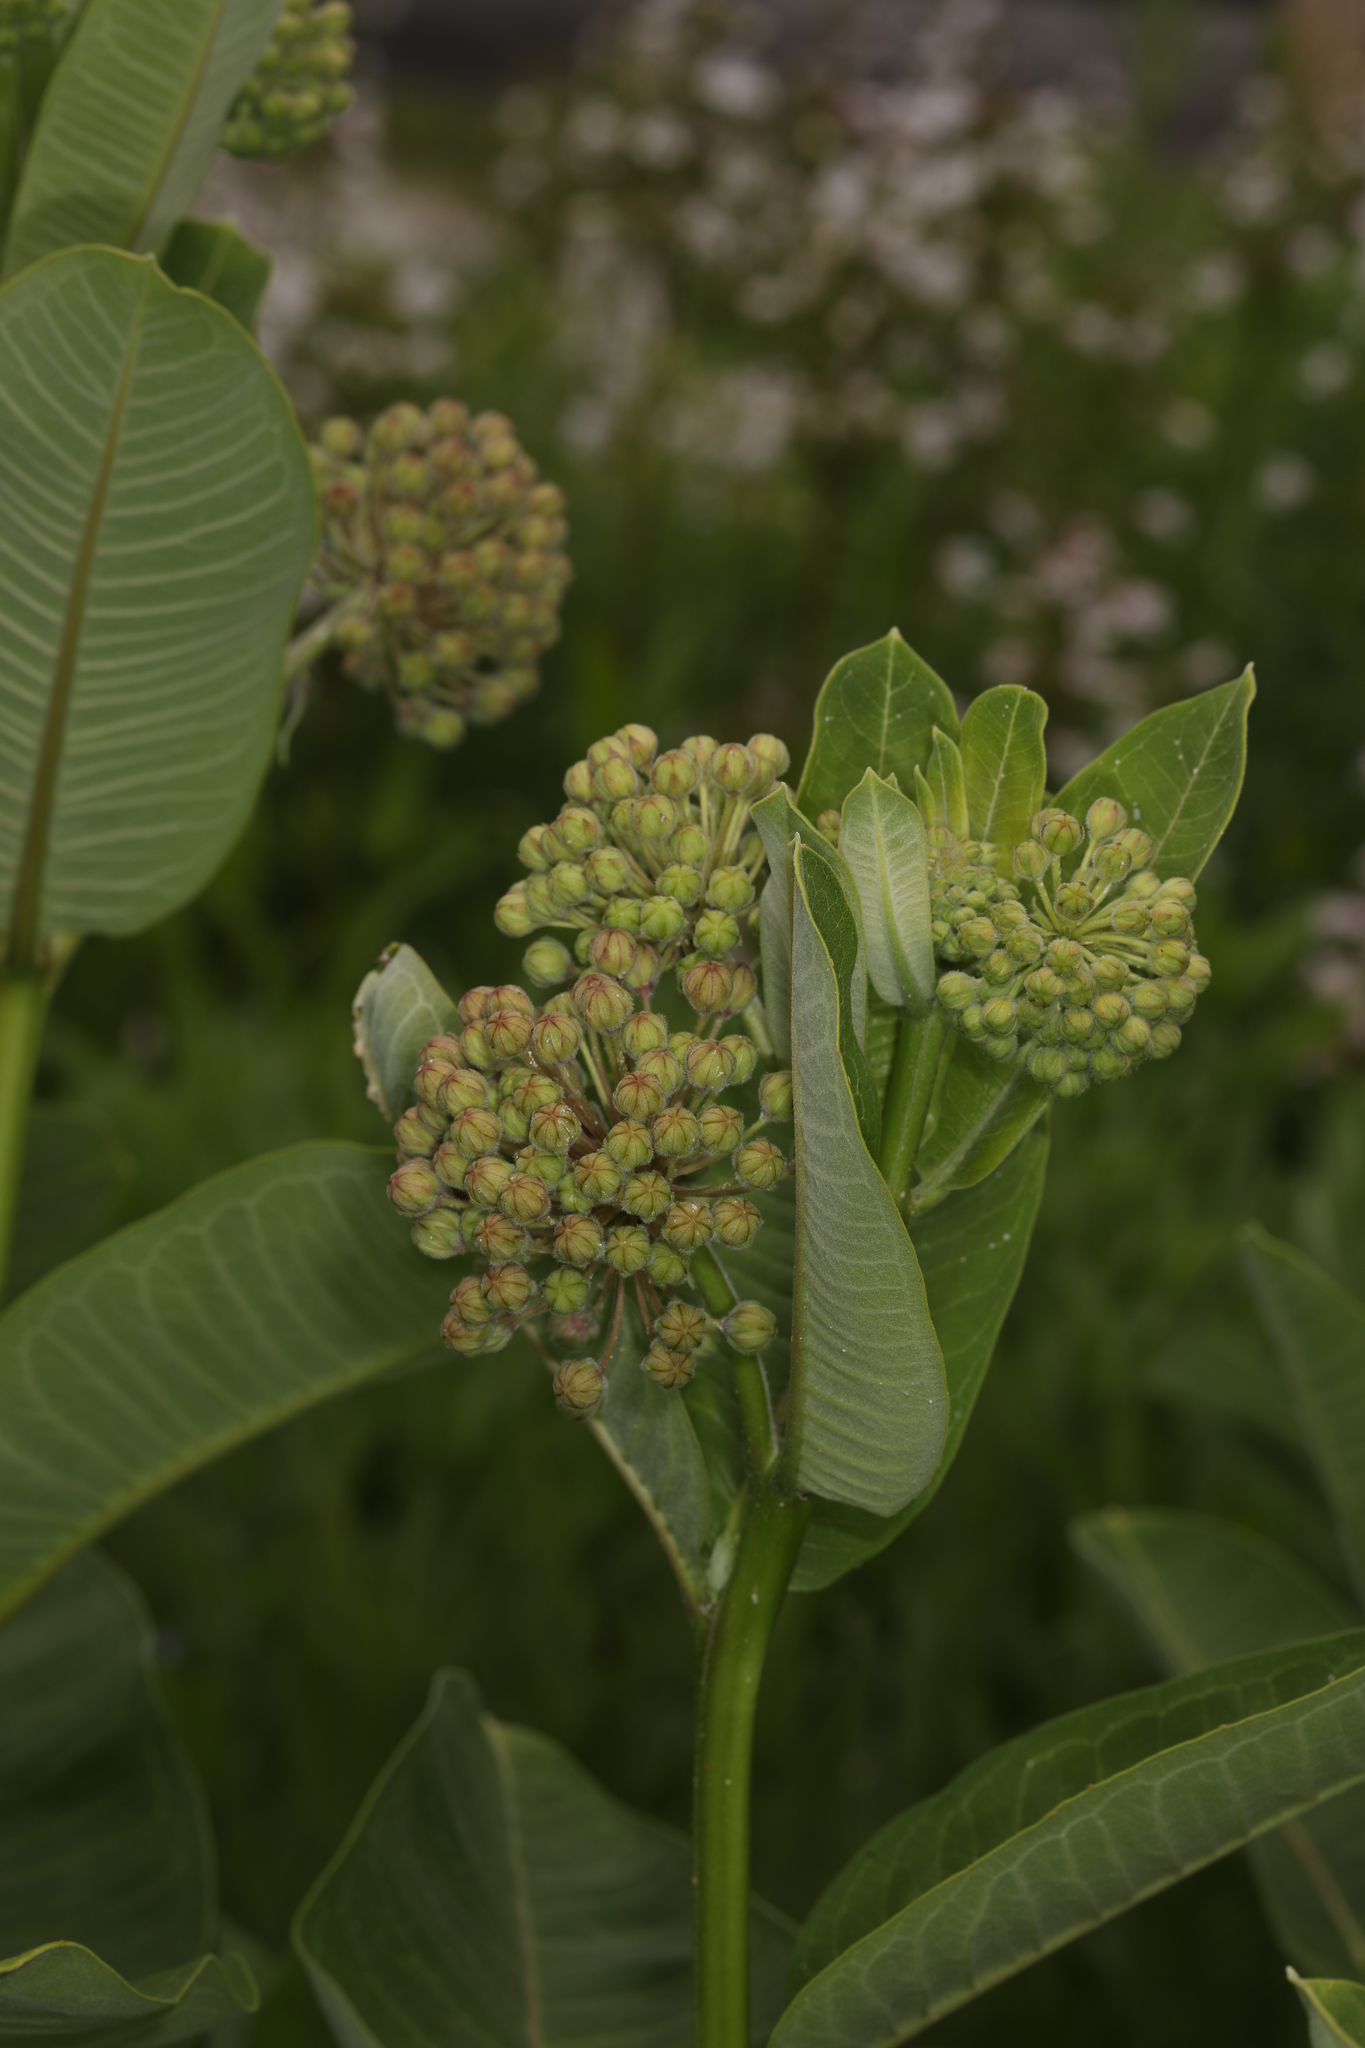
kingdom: Plantae
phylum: Tracheophyta
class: Magnoliopsida
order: Gentianales
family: Apocynaceae
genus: Asclepias
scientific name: Asclepias syriaca
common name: Common milkweed
